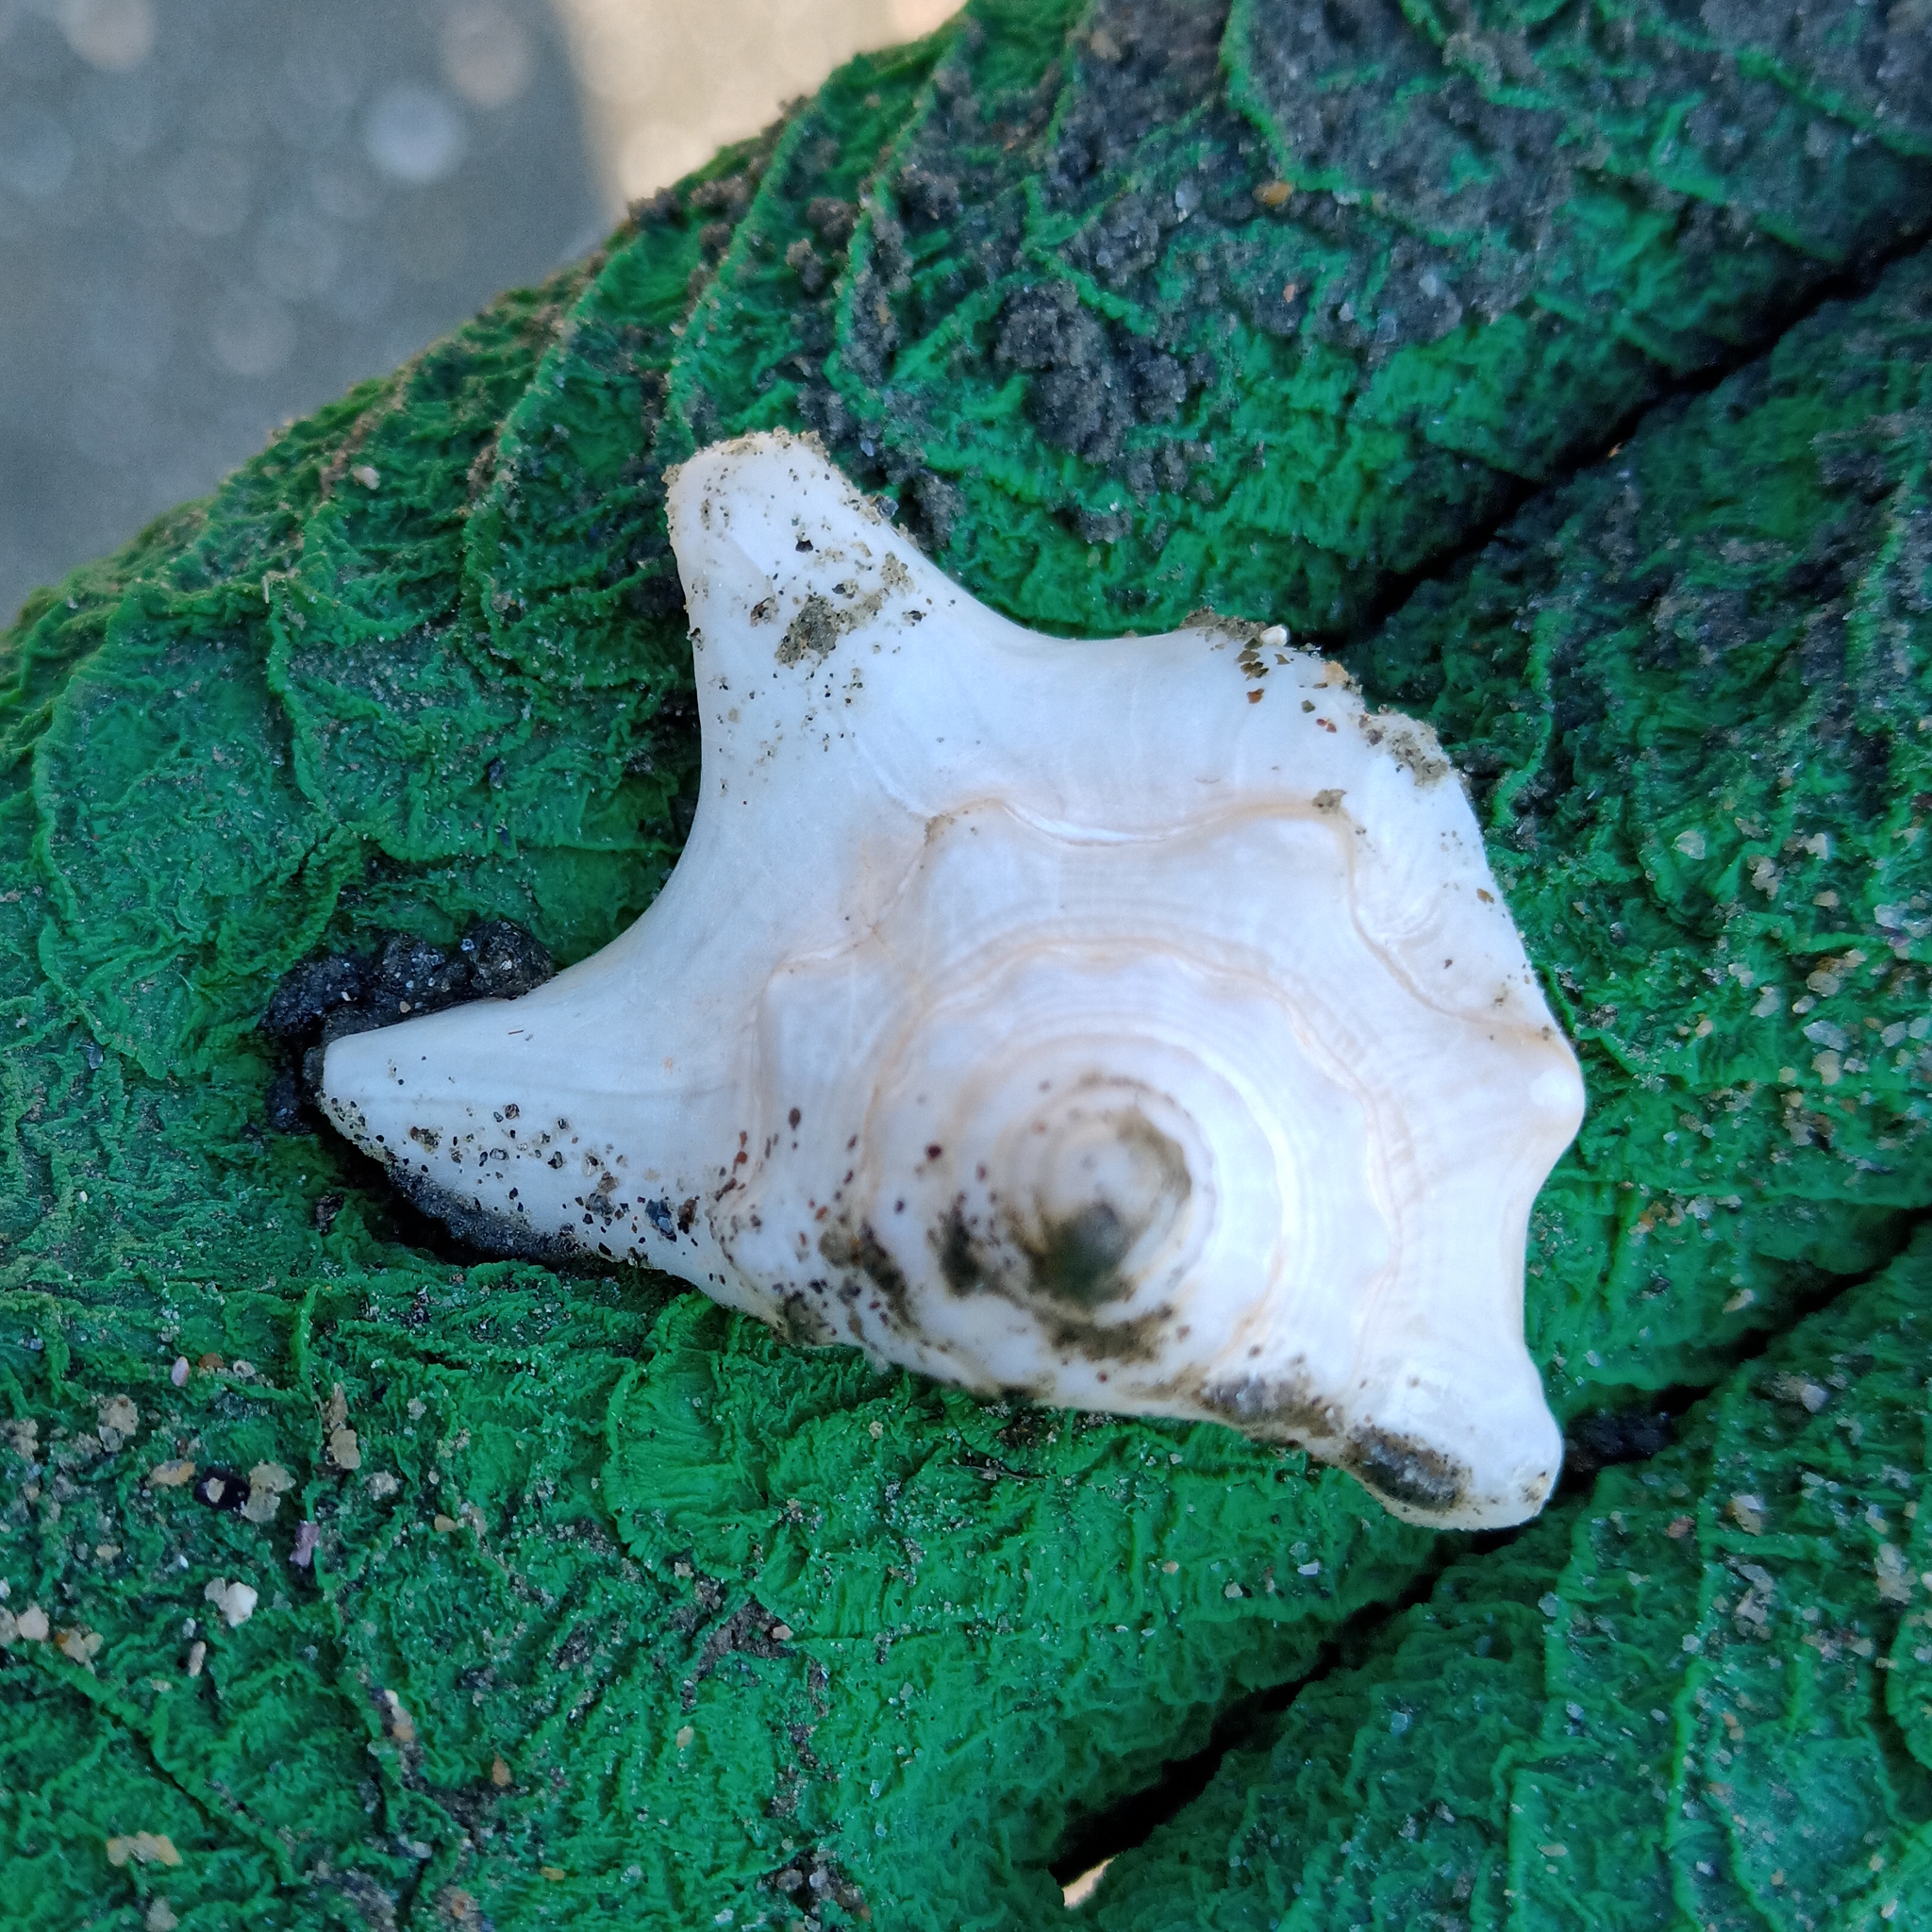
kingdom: Animalia
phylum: Mollusca
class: Gastropoda
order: Littorinimorpha
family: Strombidae
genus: Strombus
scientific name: Strombus pugilis
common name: West indian fighting conch
